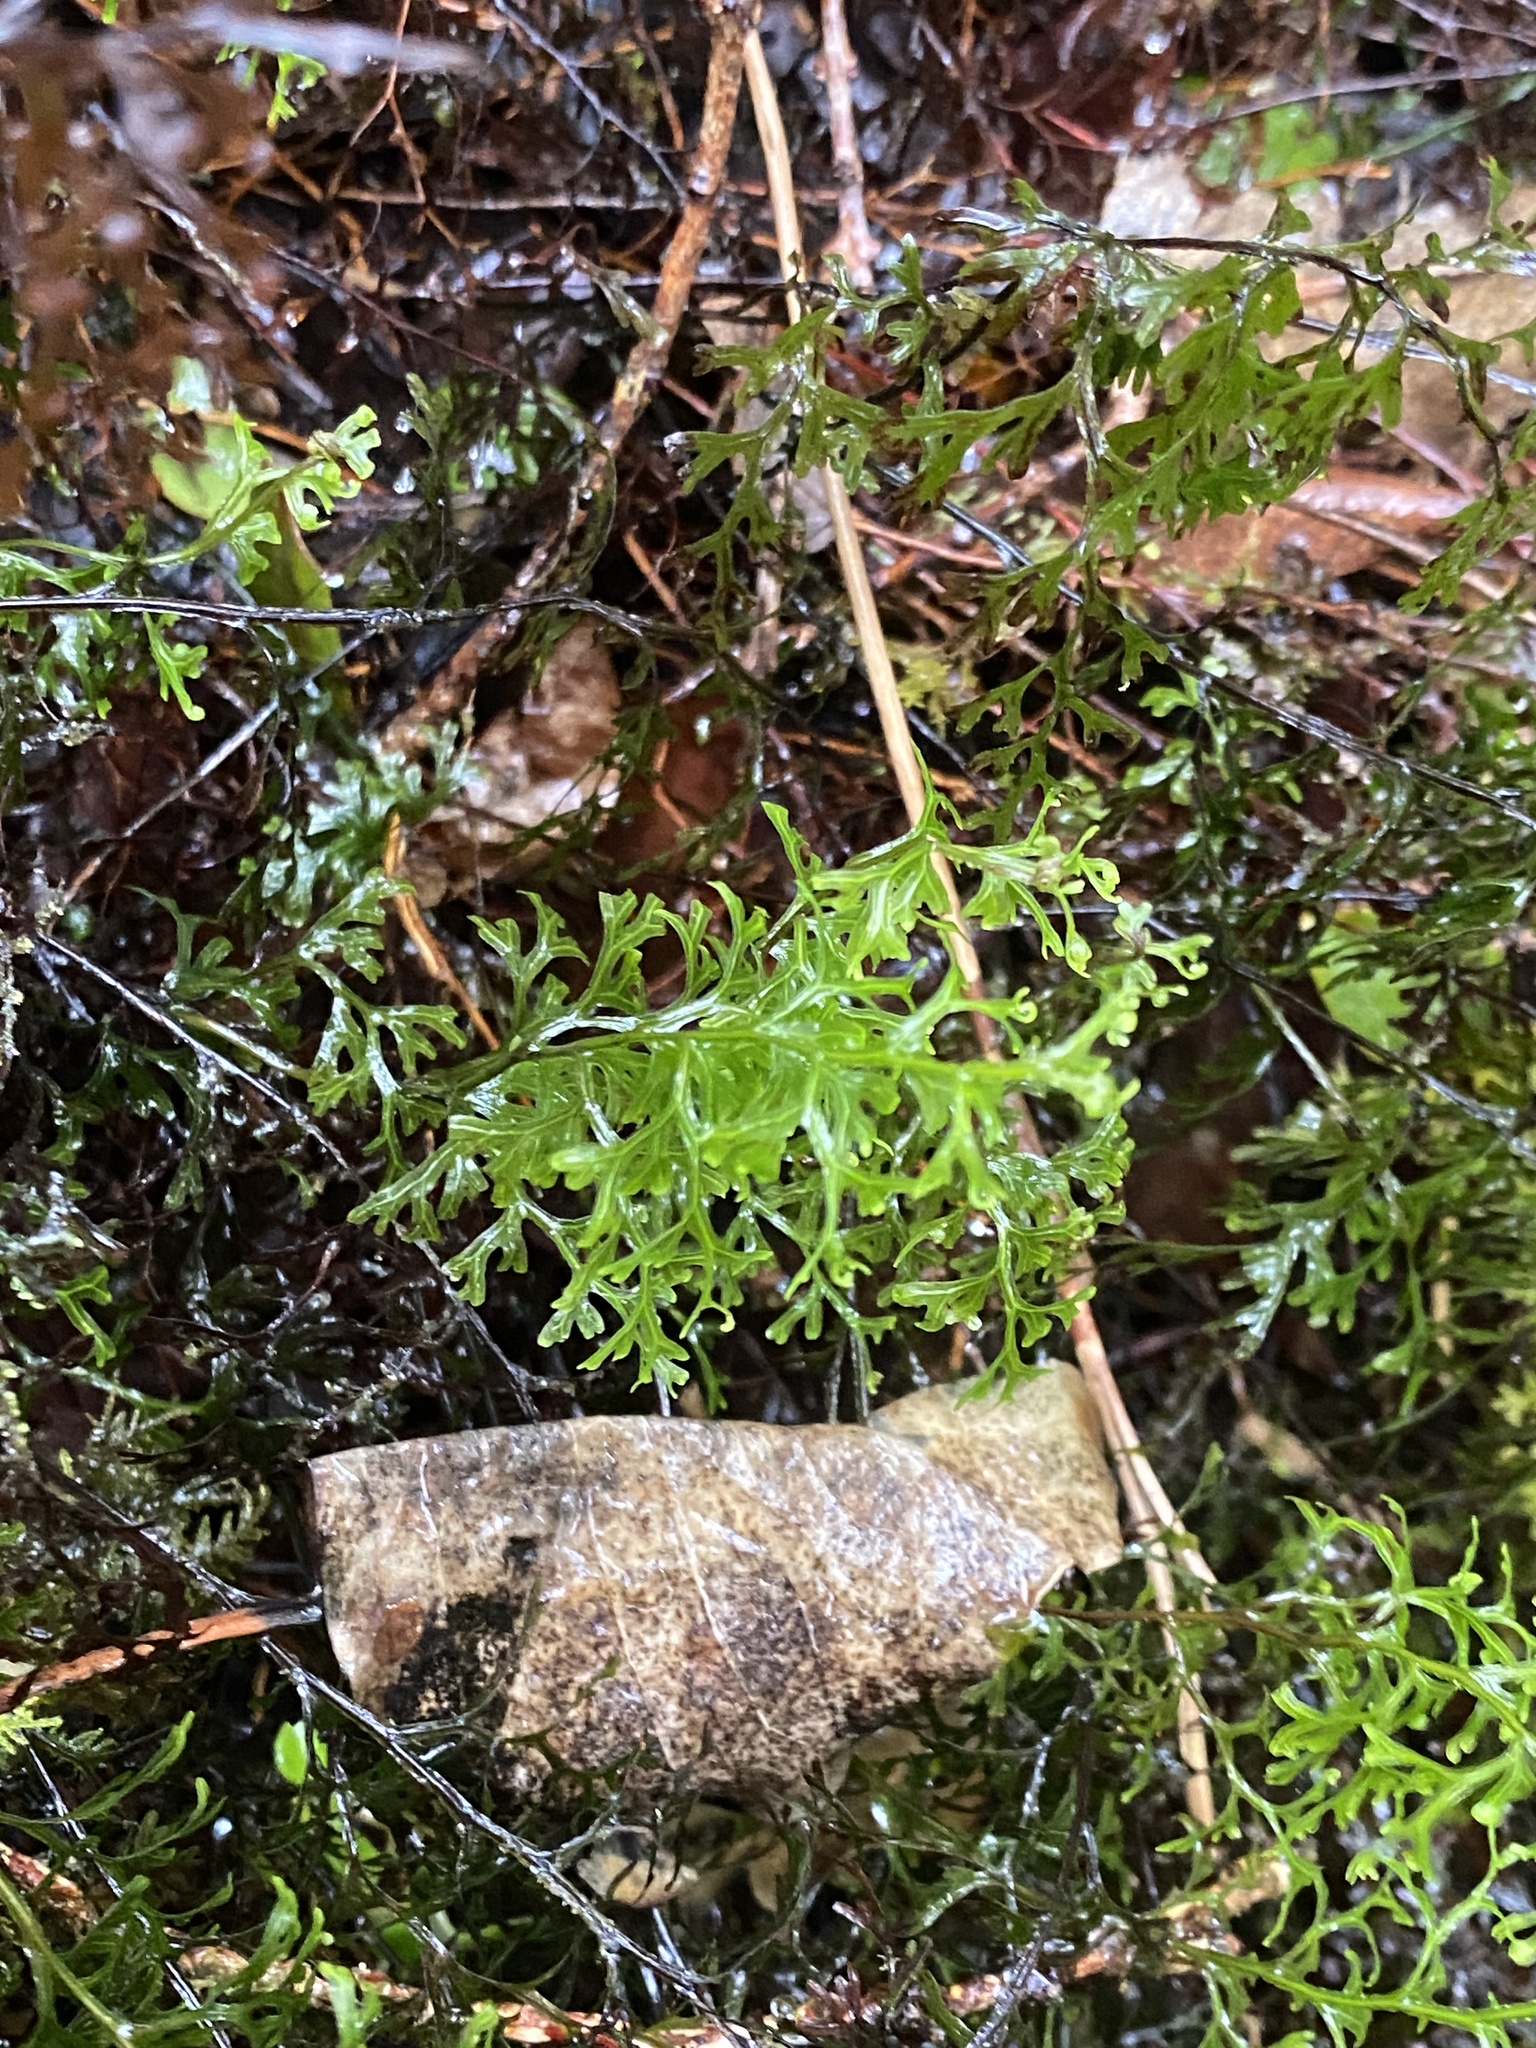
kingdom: Plantae
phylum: Tracheophyta
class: Polypodiopsida
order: Hymenophyllales
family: Hymenophyllaceae
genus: Hymenophyllum
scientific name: Hymenophyllum recurvum
